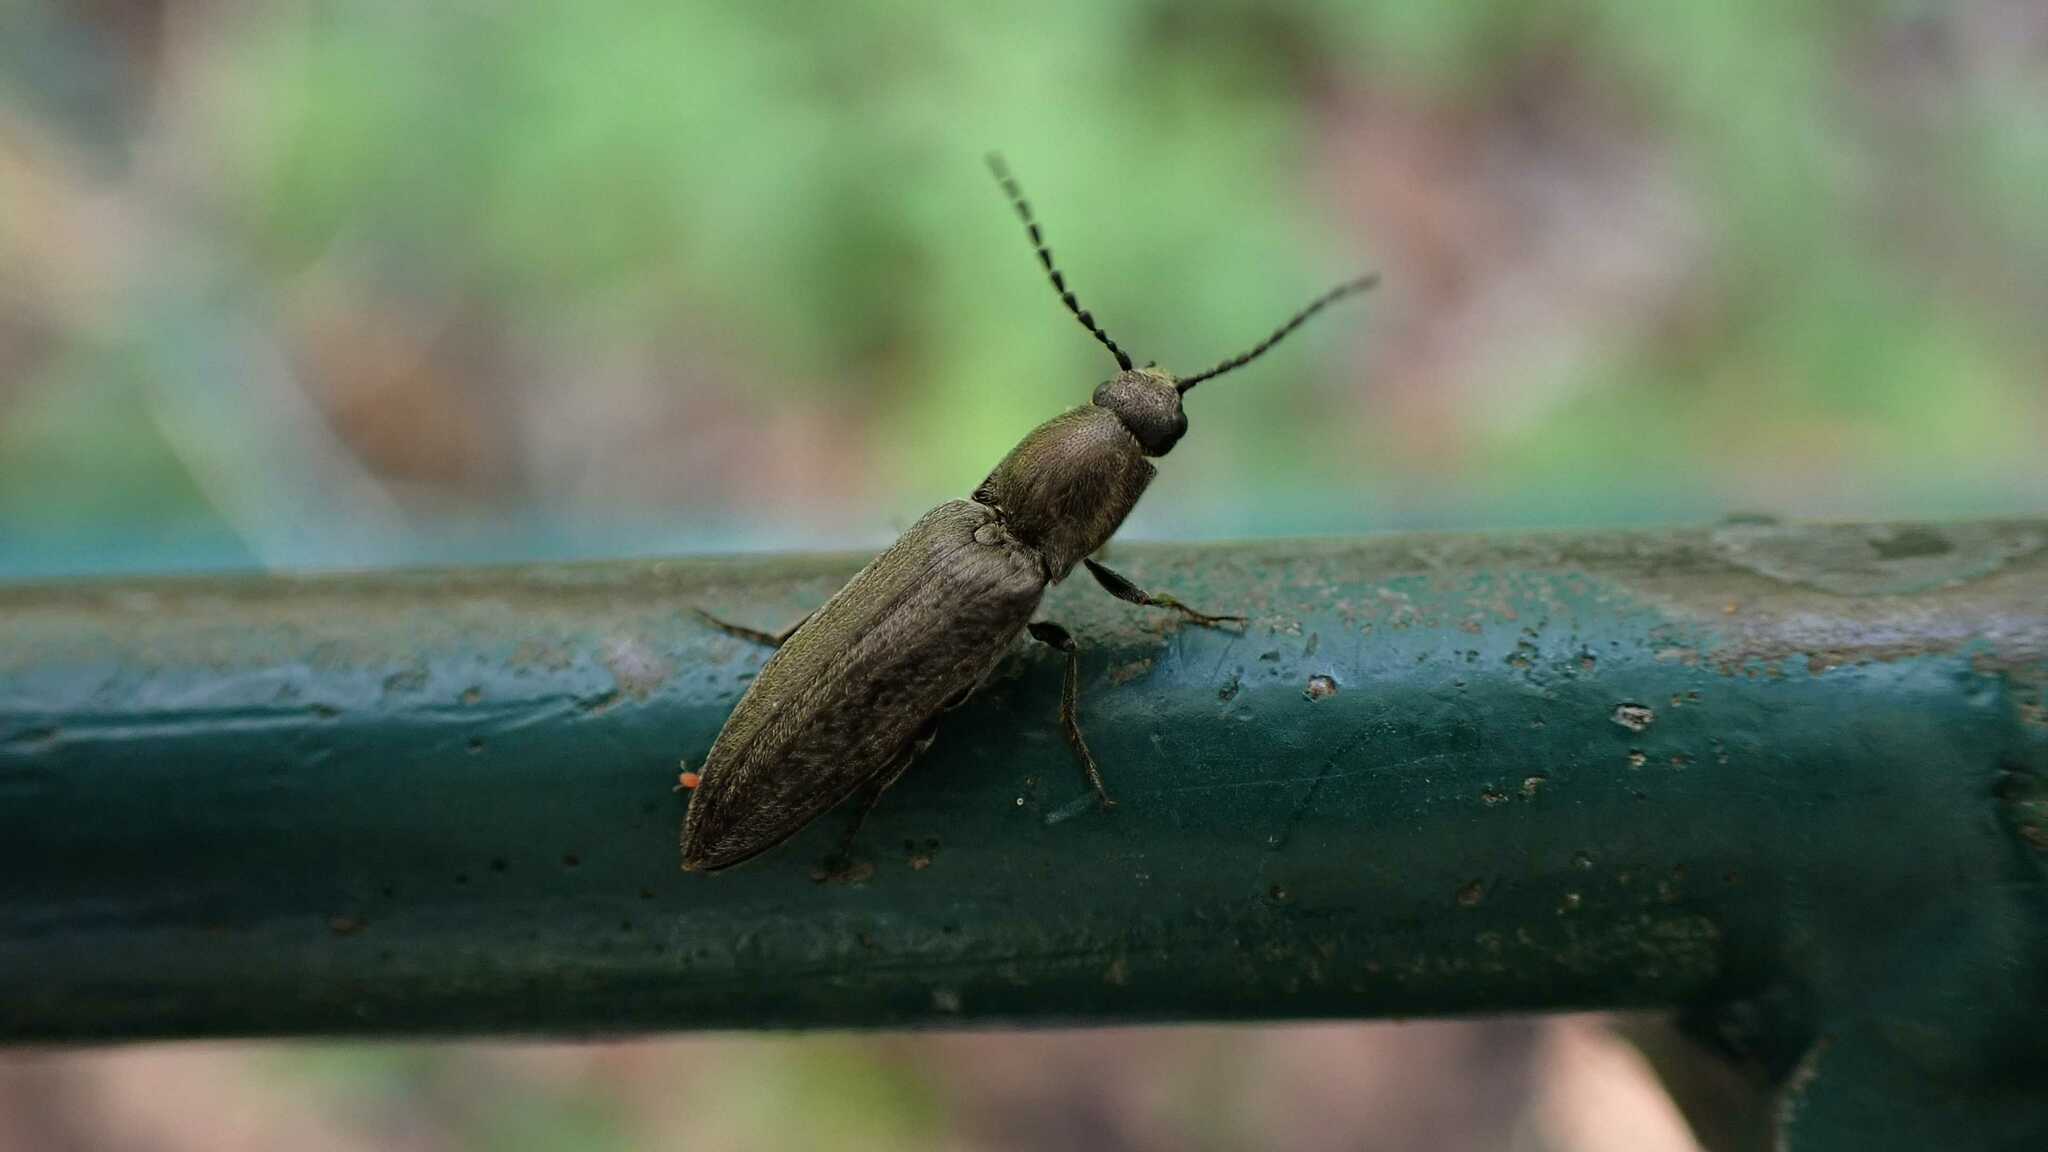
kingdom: Animalia
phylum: Arthropoda
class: Insecta
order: Coleoptera
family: Elateridae
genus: Cidnopus
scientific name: Cidnopus aeruginosus
